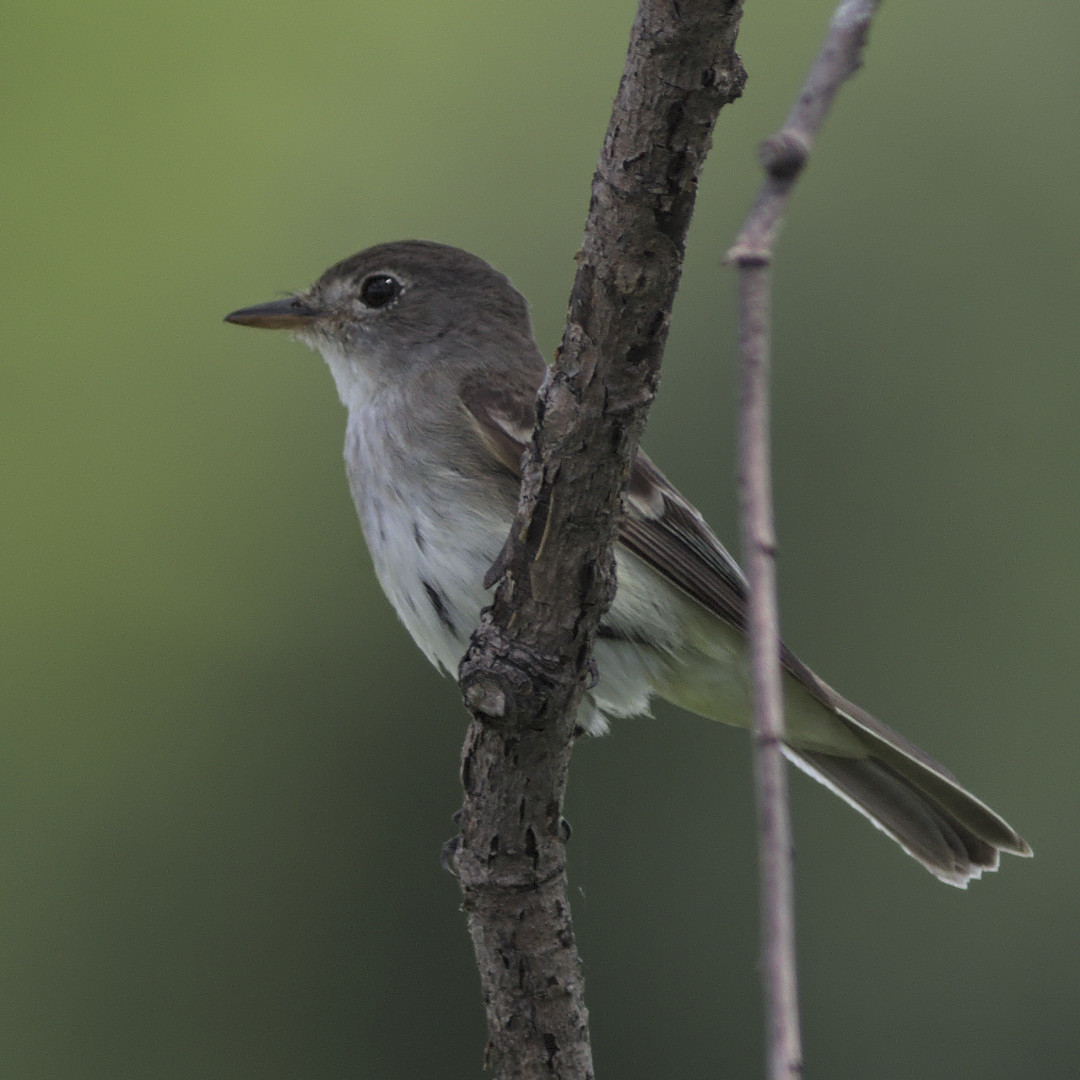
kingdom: Animalia
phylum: Chordata
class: Aves
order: Passeriformes
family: Tyrannidae
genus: Empidonax
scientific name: Empidonax traillii
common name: Willow flycatcher
